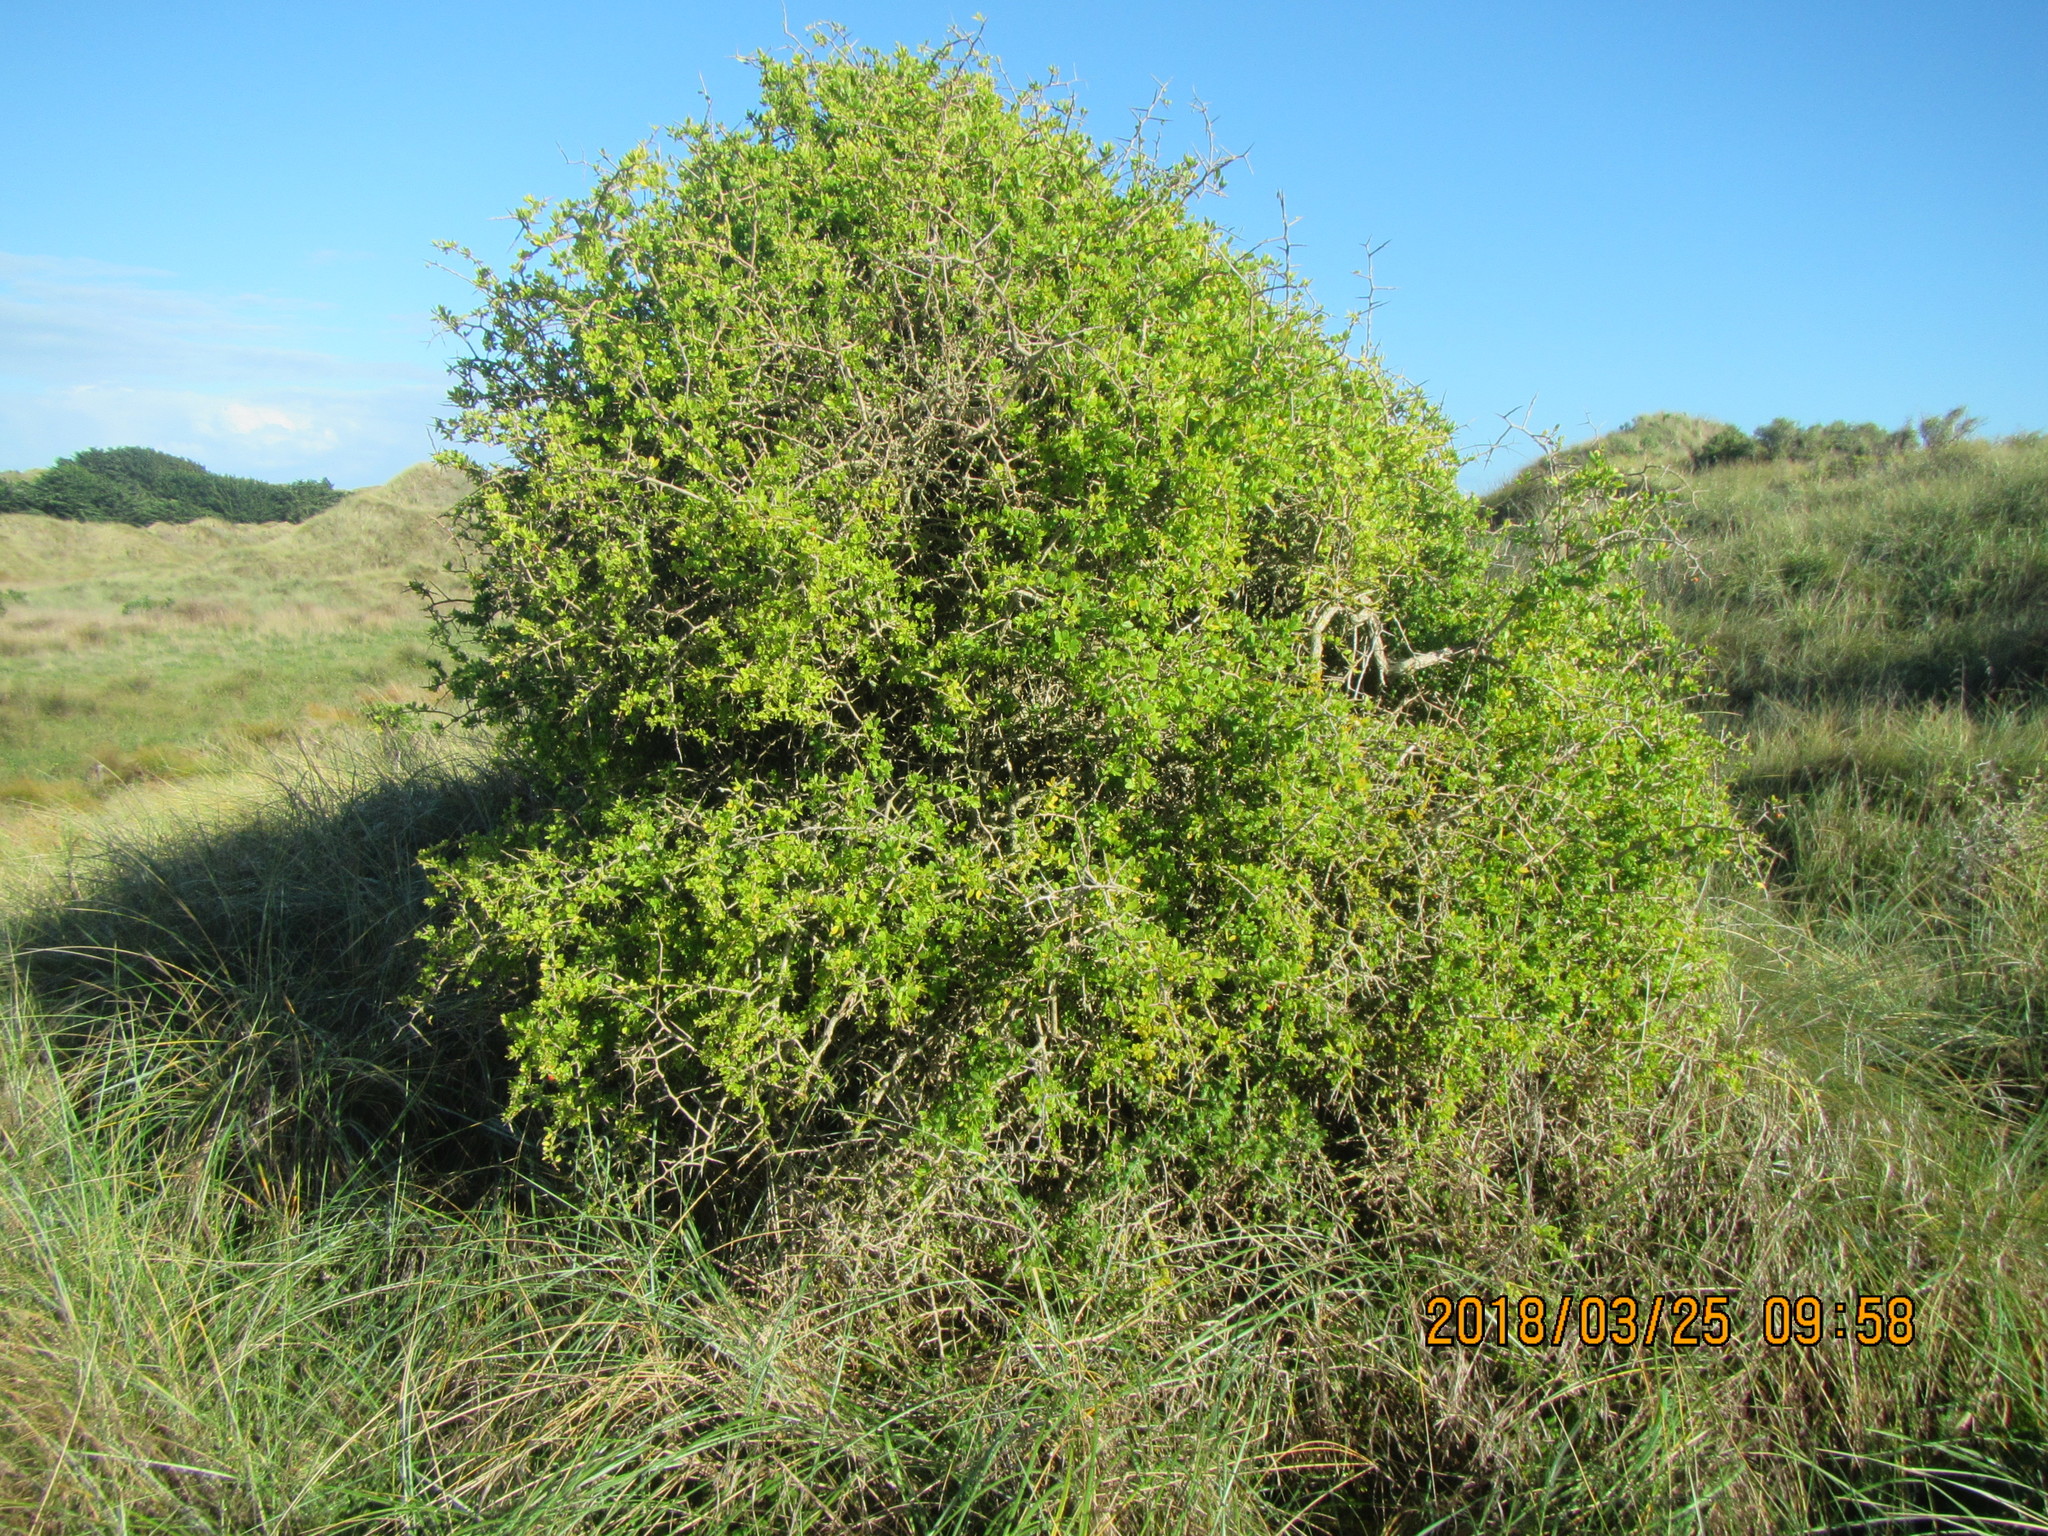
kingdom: Plantae
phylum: Tracheophyta
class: Magnoliopsida
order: Solanales
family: Solanaceae
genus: Lycium
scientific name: Lycium ferocissimum
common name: African boxthorn
